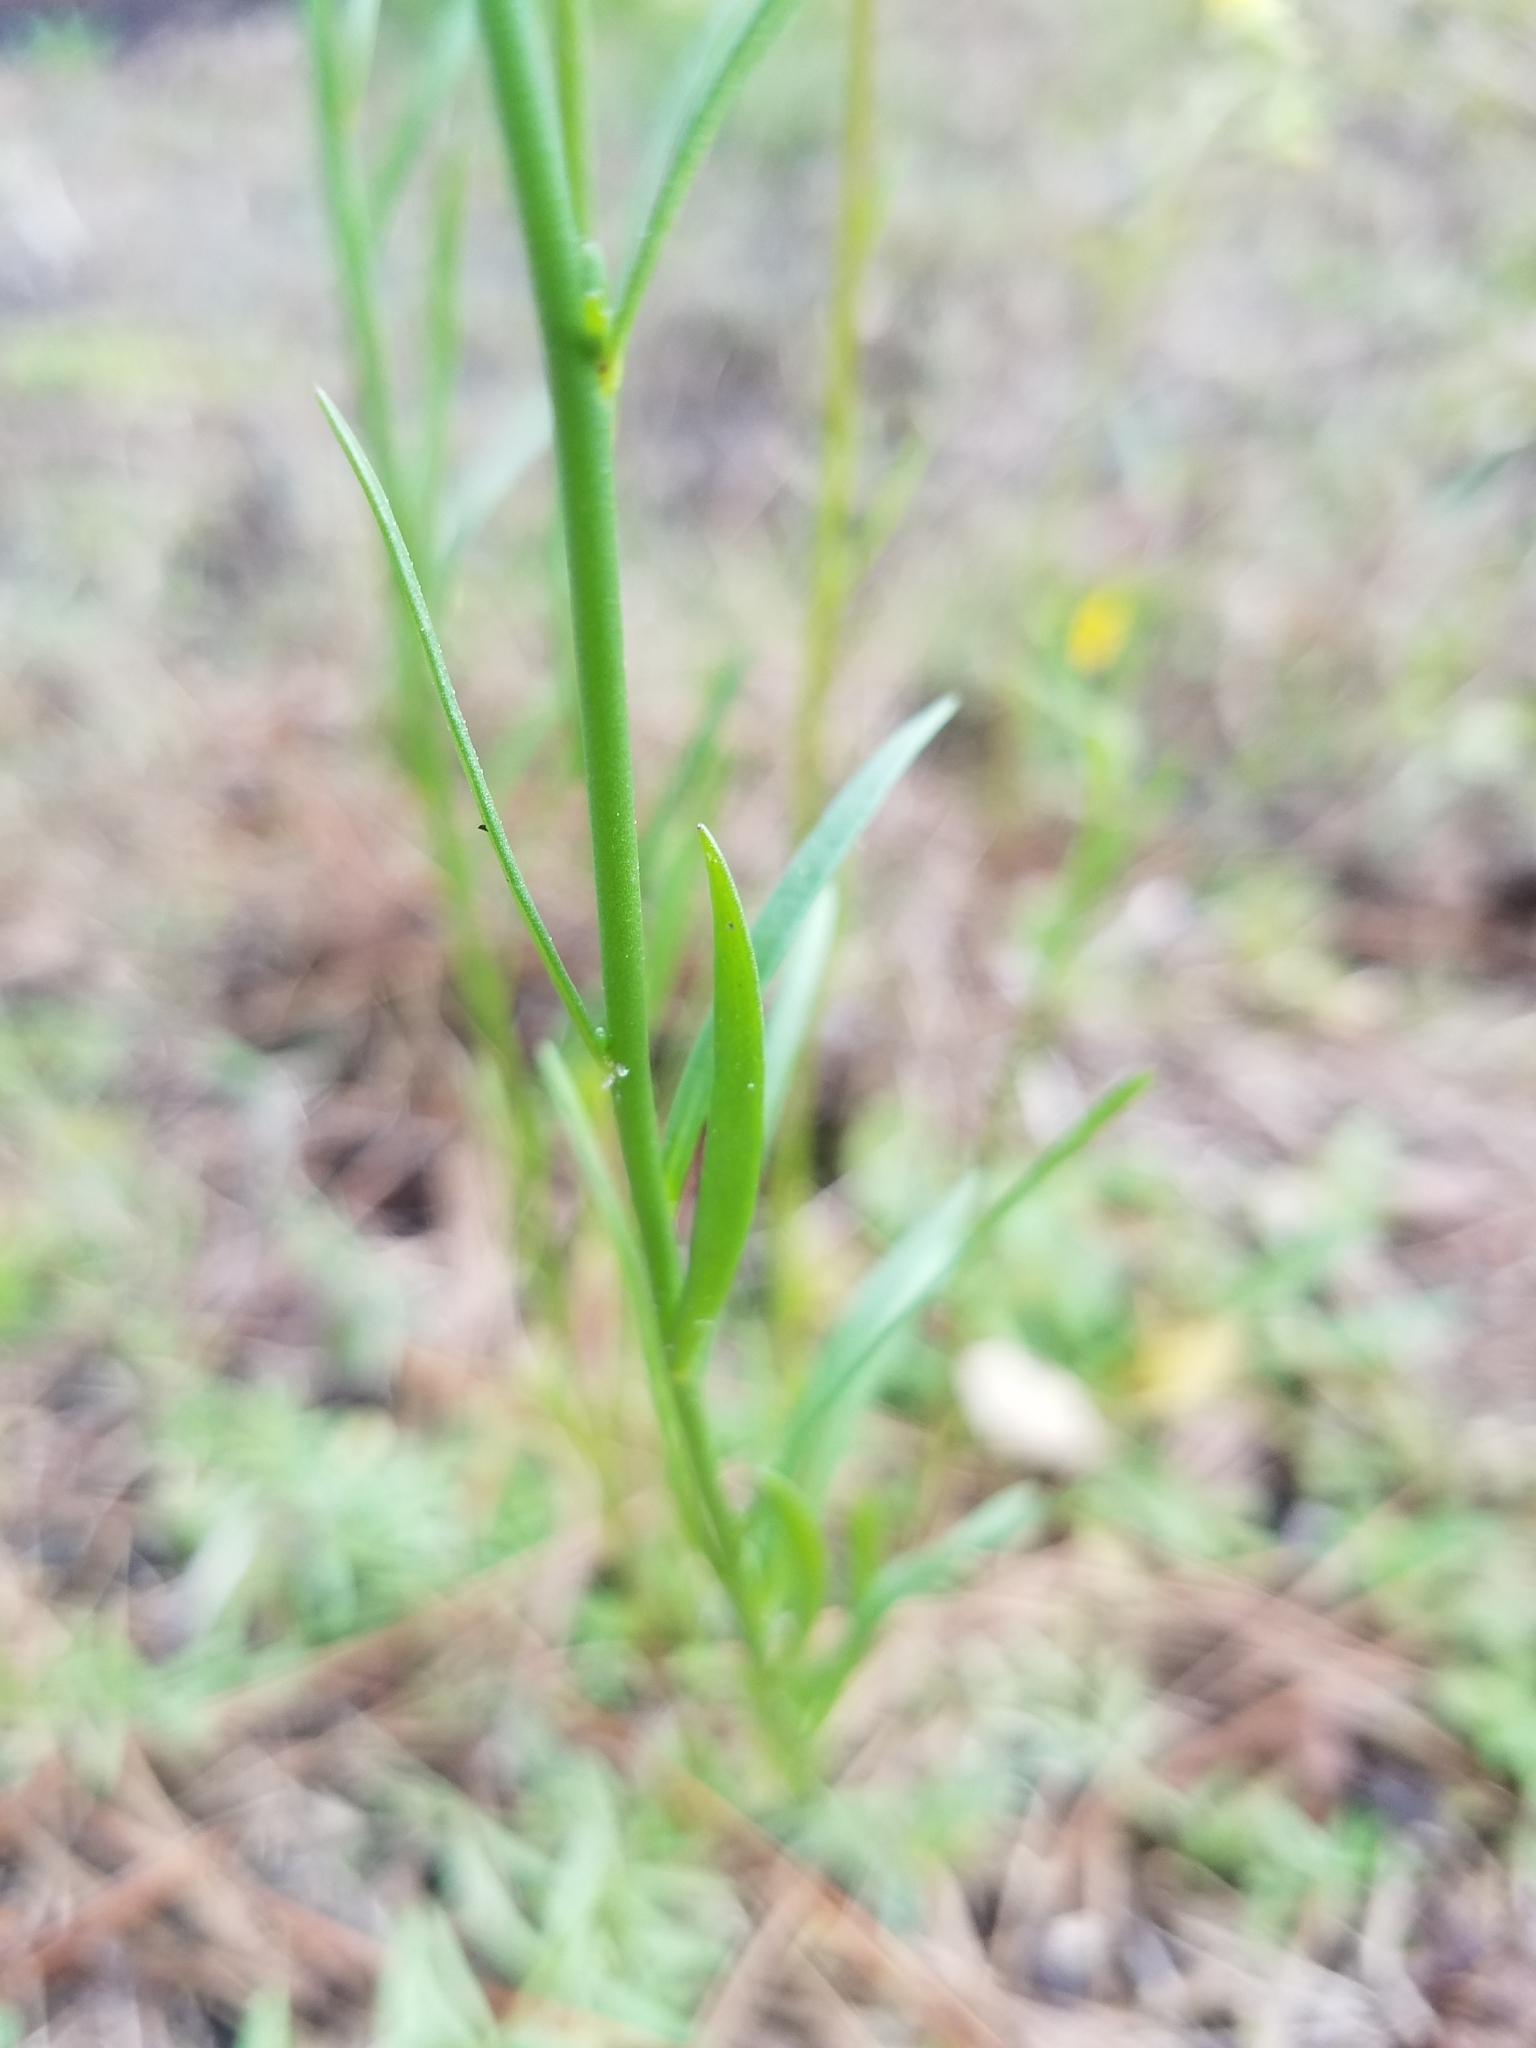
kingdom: Plantae
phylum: Tracheophyta
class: Magnoliopsida
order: Lamiales
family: Plantaginaceae
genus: Nuttallanthus
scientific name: Nuttallanthus canadensis
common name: Blue toadflax
